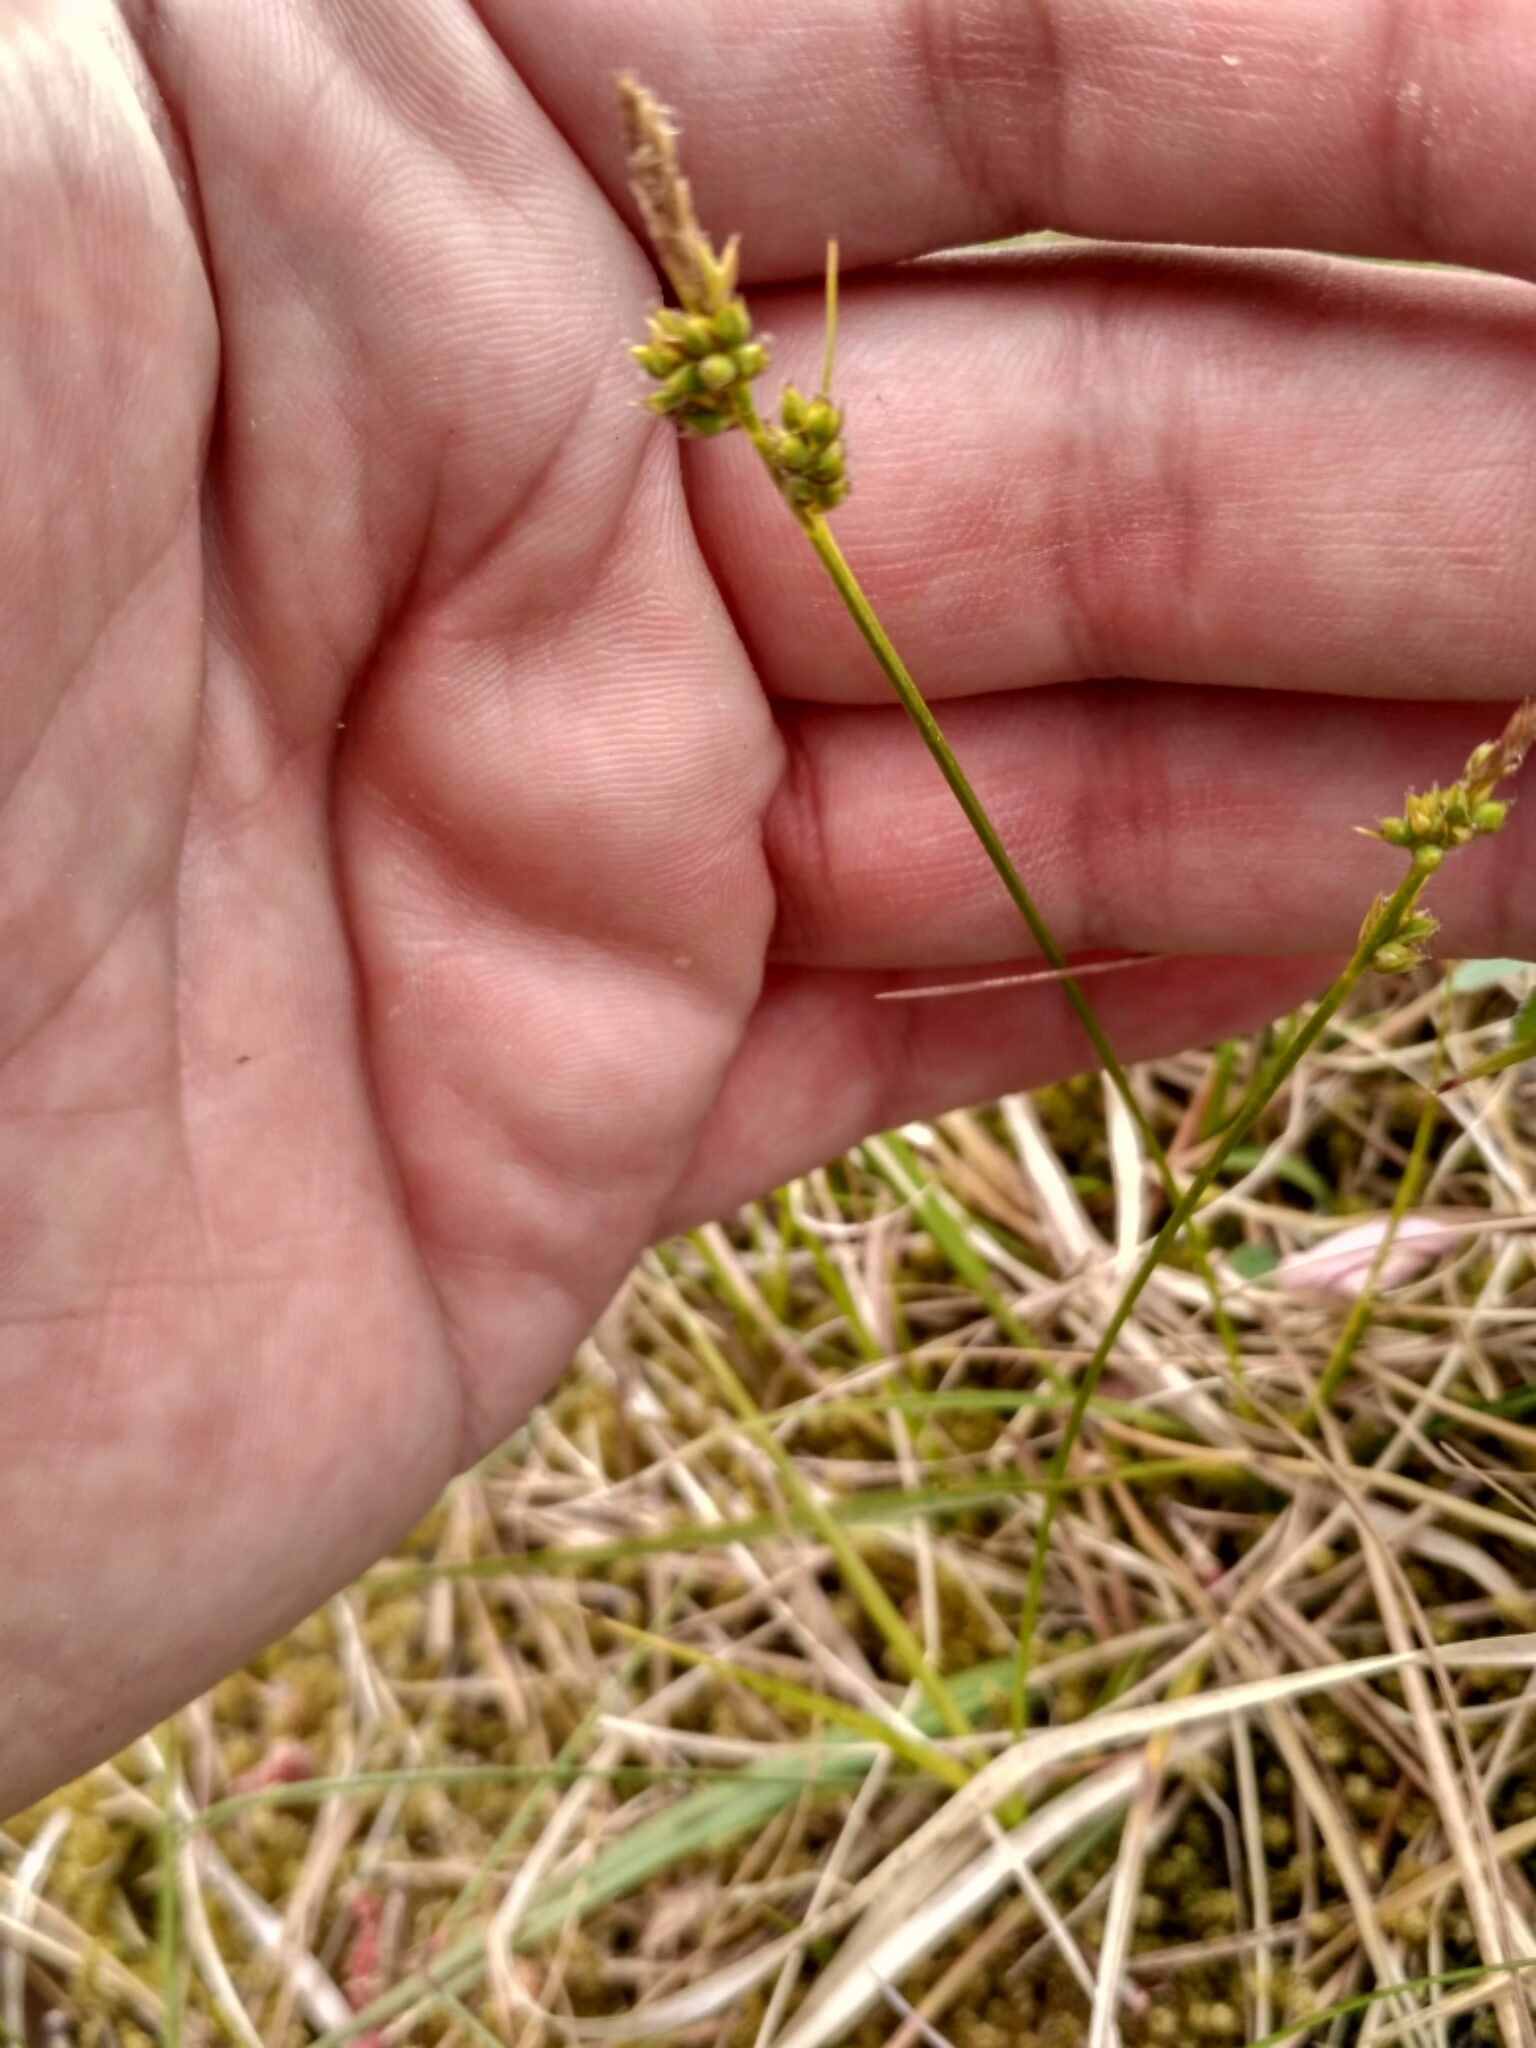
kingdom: Plantae
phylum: Tracheophyta
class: Liliopsida
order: Poales
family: Cyperaceae
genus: Carex
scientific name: Carex pilulifera
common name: Pill sedge
